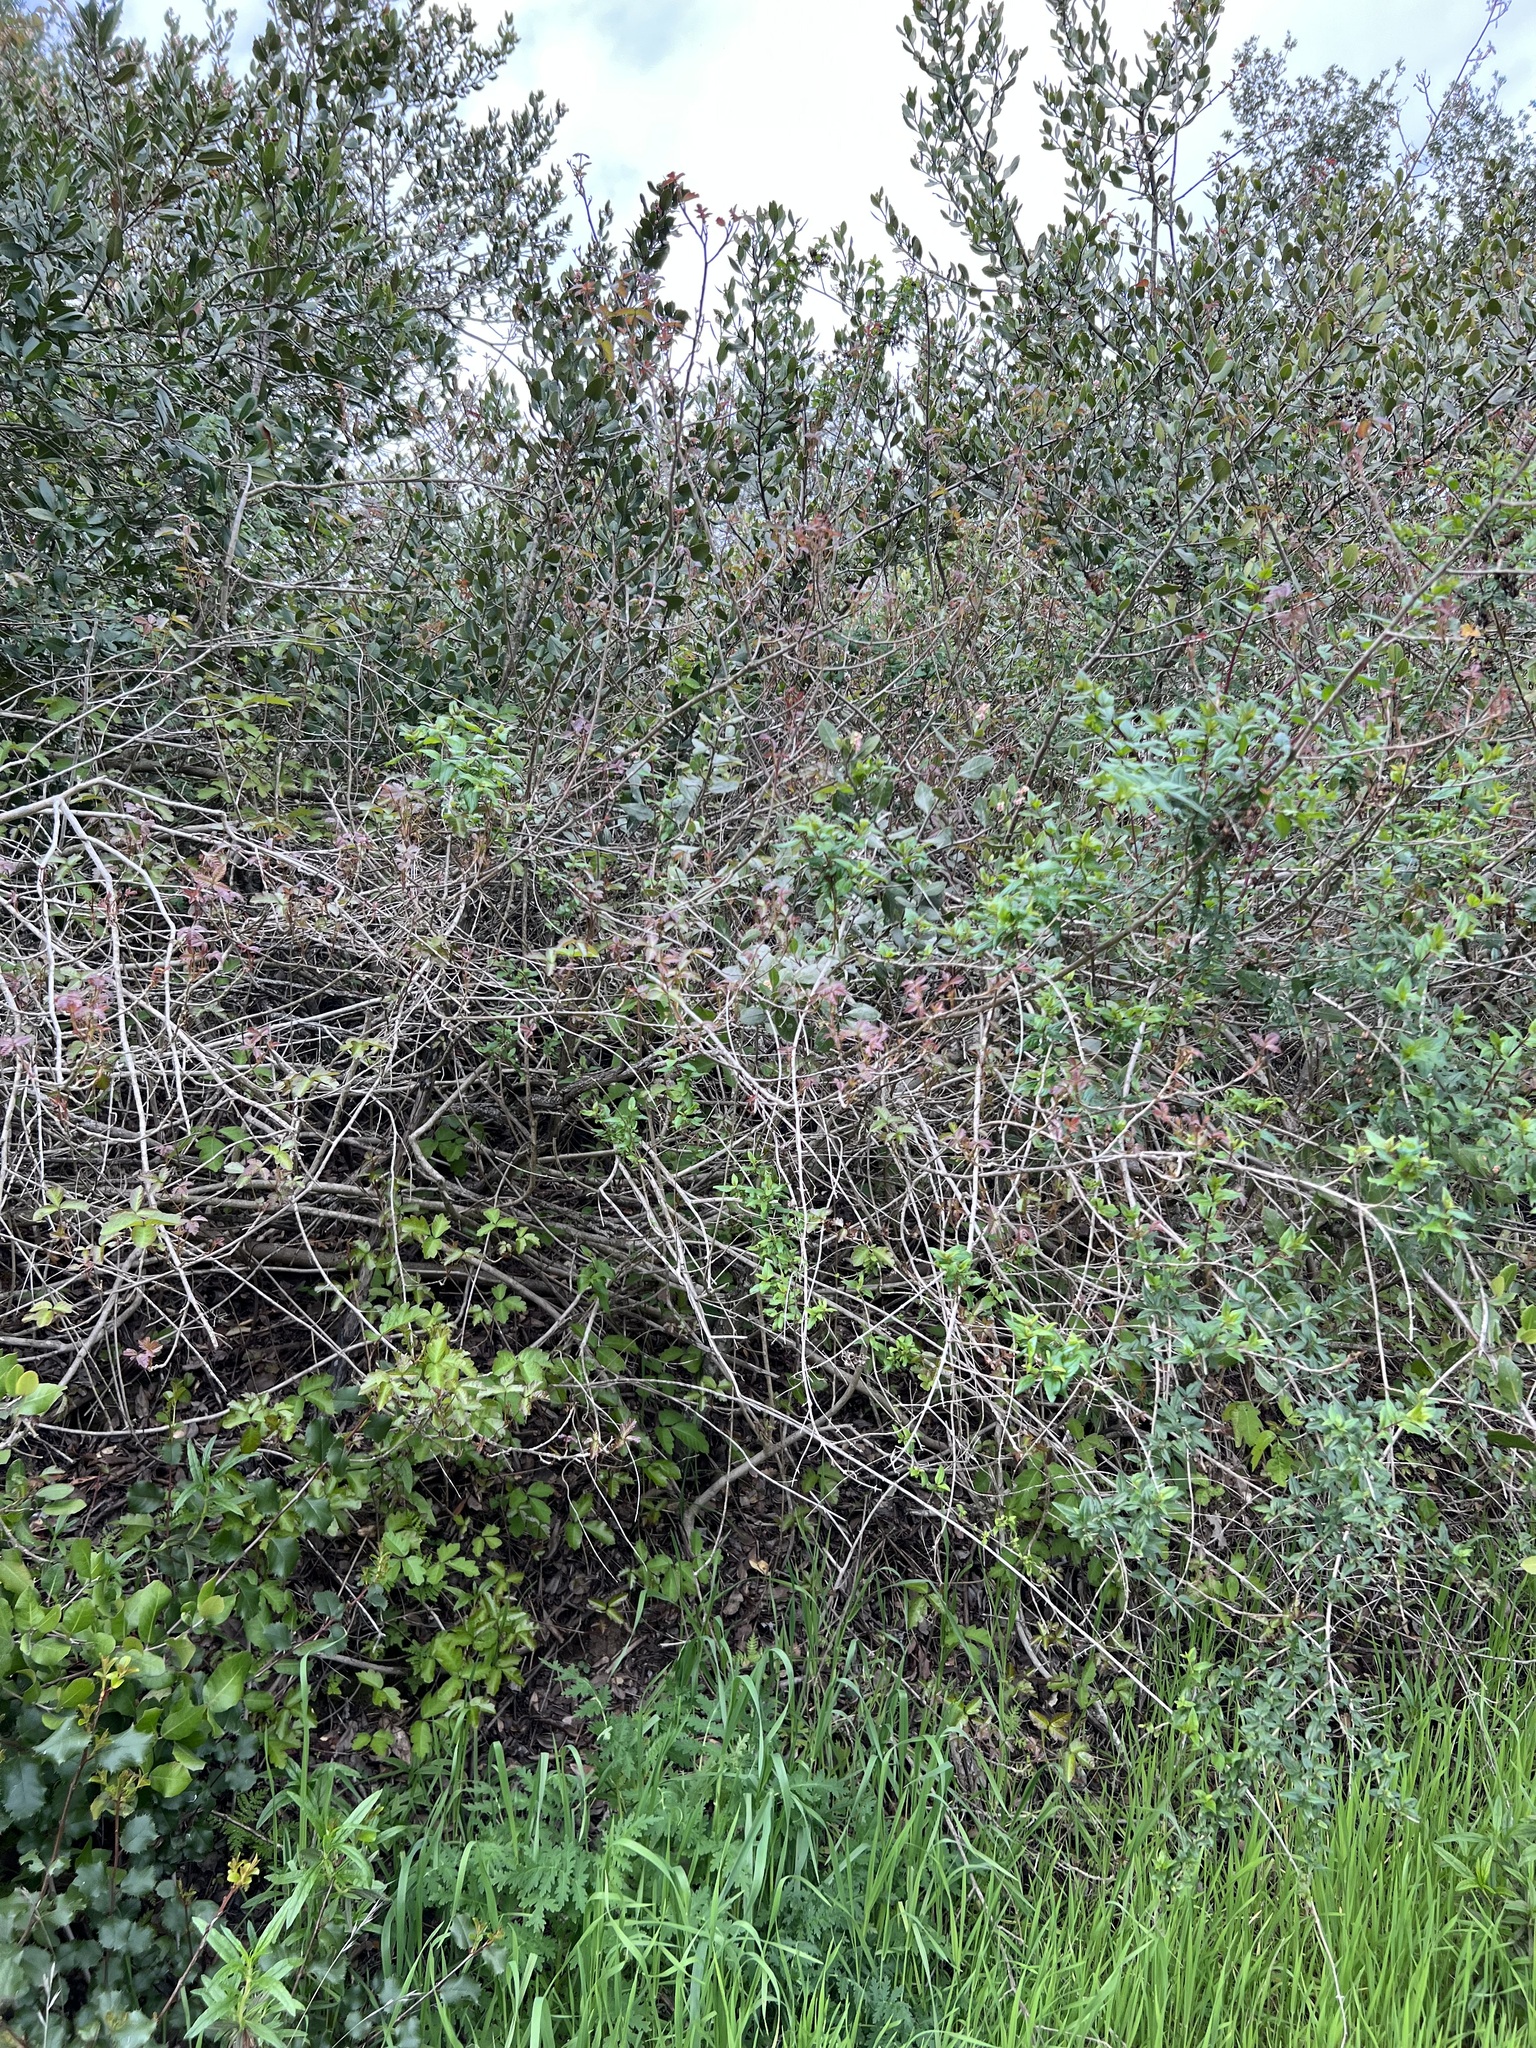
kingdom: Plantae
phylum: Tracheophyta
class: Magnoliopsida
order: Sapindales
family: Anacardiaceae
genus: Toxicodendron
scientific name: Toxicodendron diversilobum
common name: Pacific poison-oak
